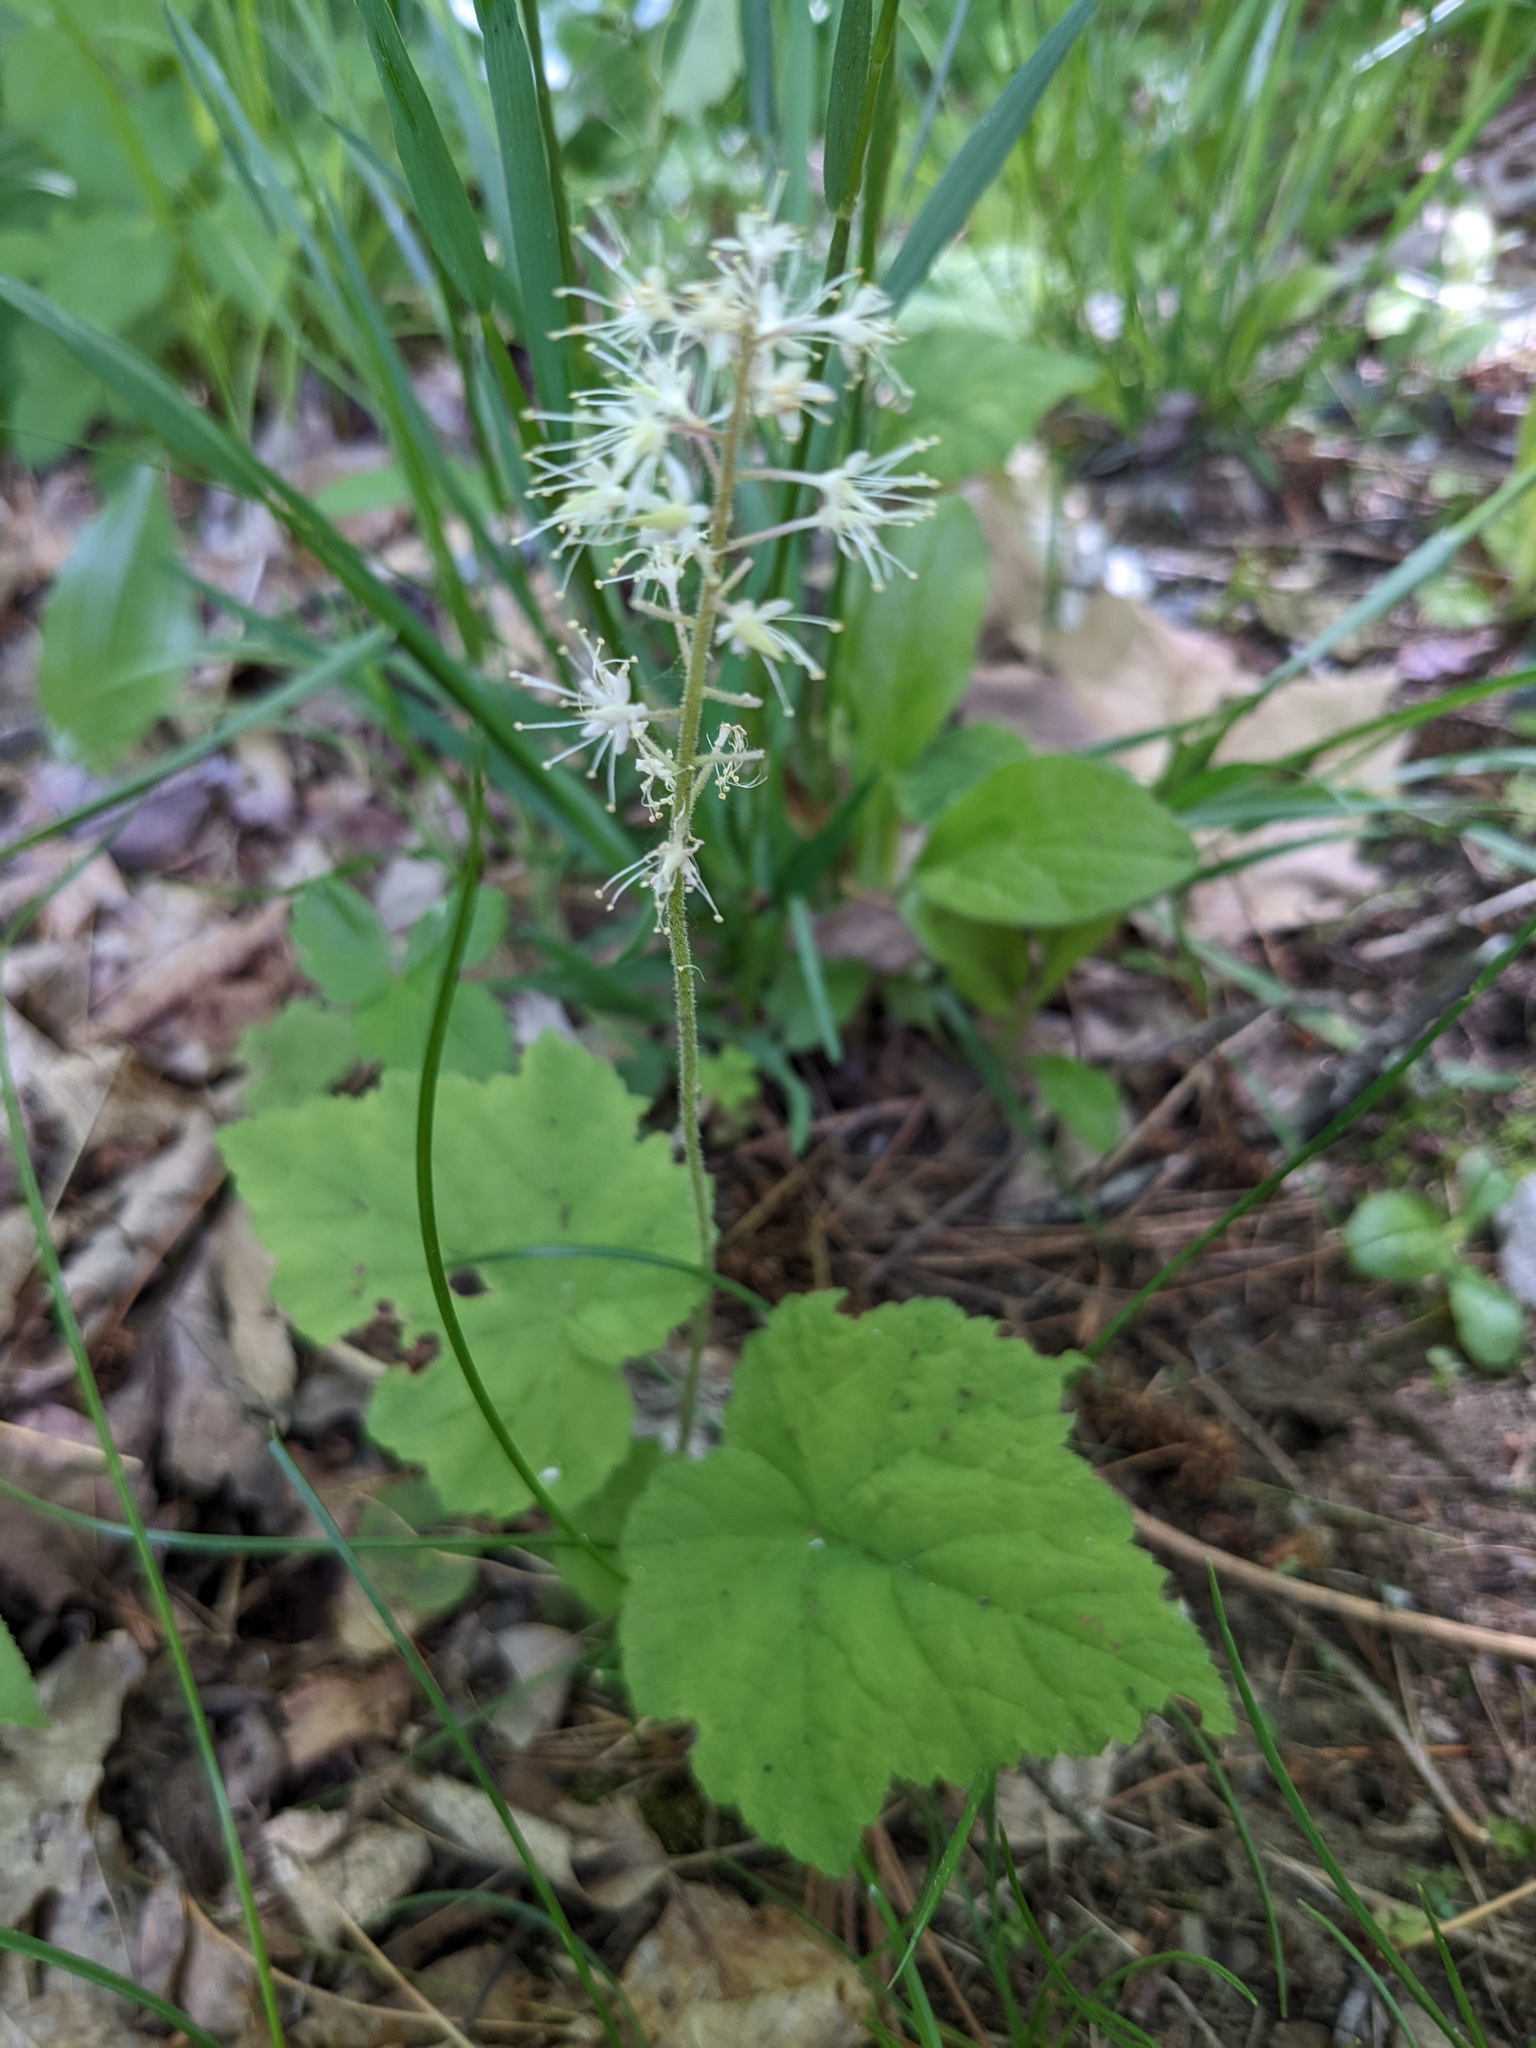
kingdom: Plantae
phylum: Tracheophyta
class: Magnoliopsida
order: Saxifragales
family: Saxifragaceae
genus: Tiarella
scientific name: Tiarella stolonifera
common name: Stoloniferous foamflower
